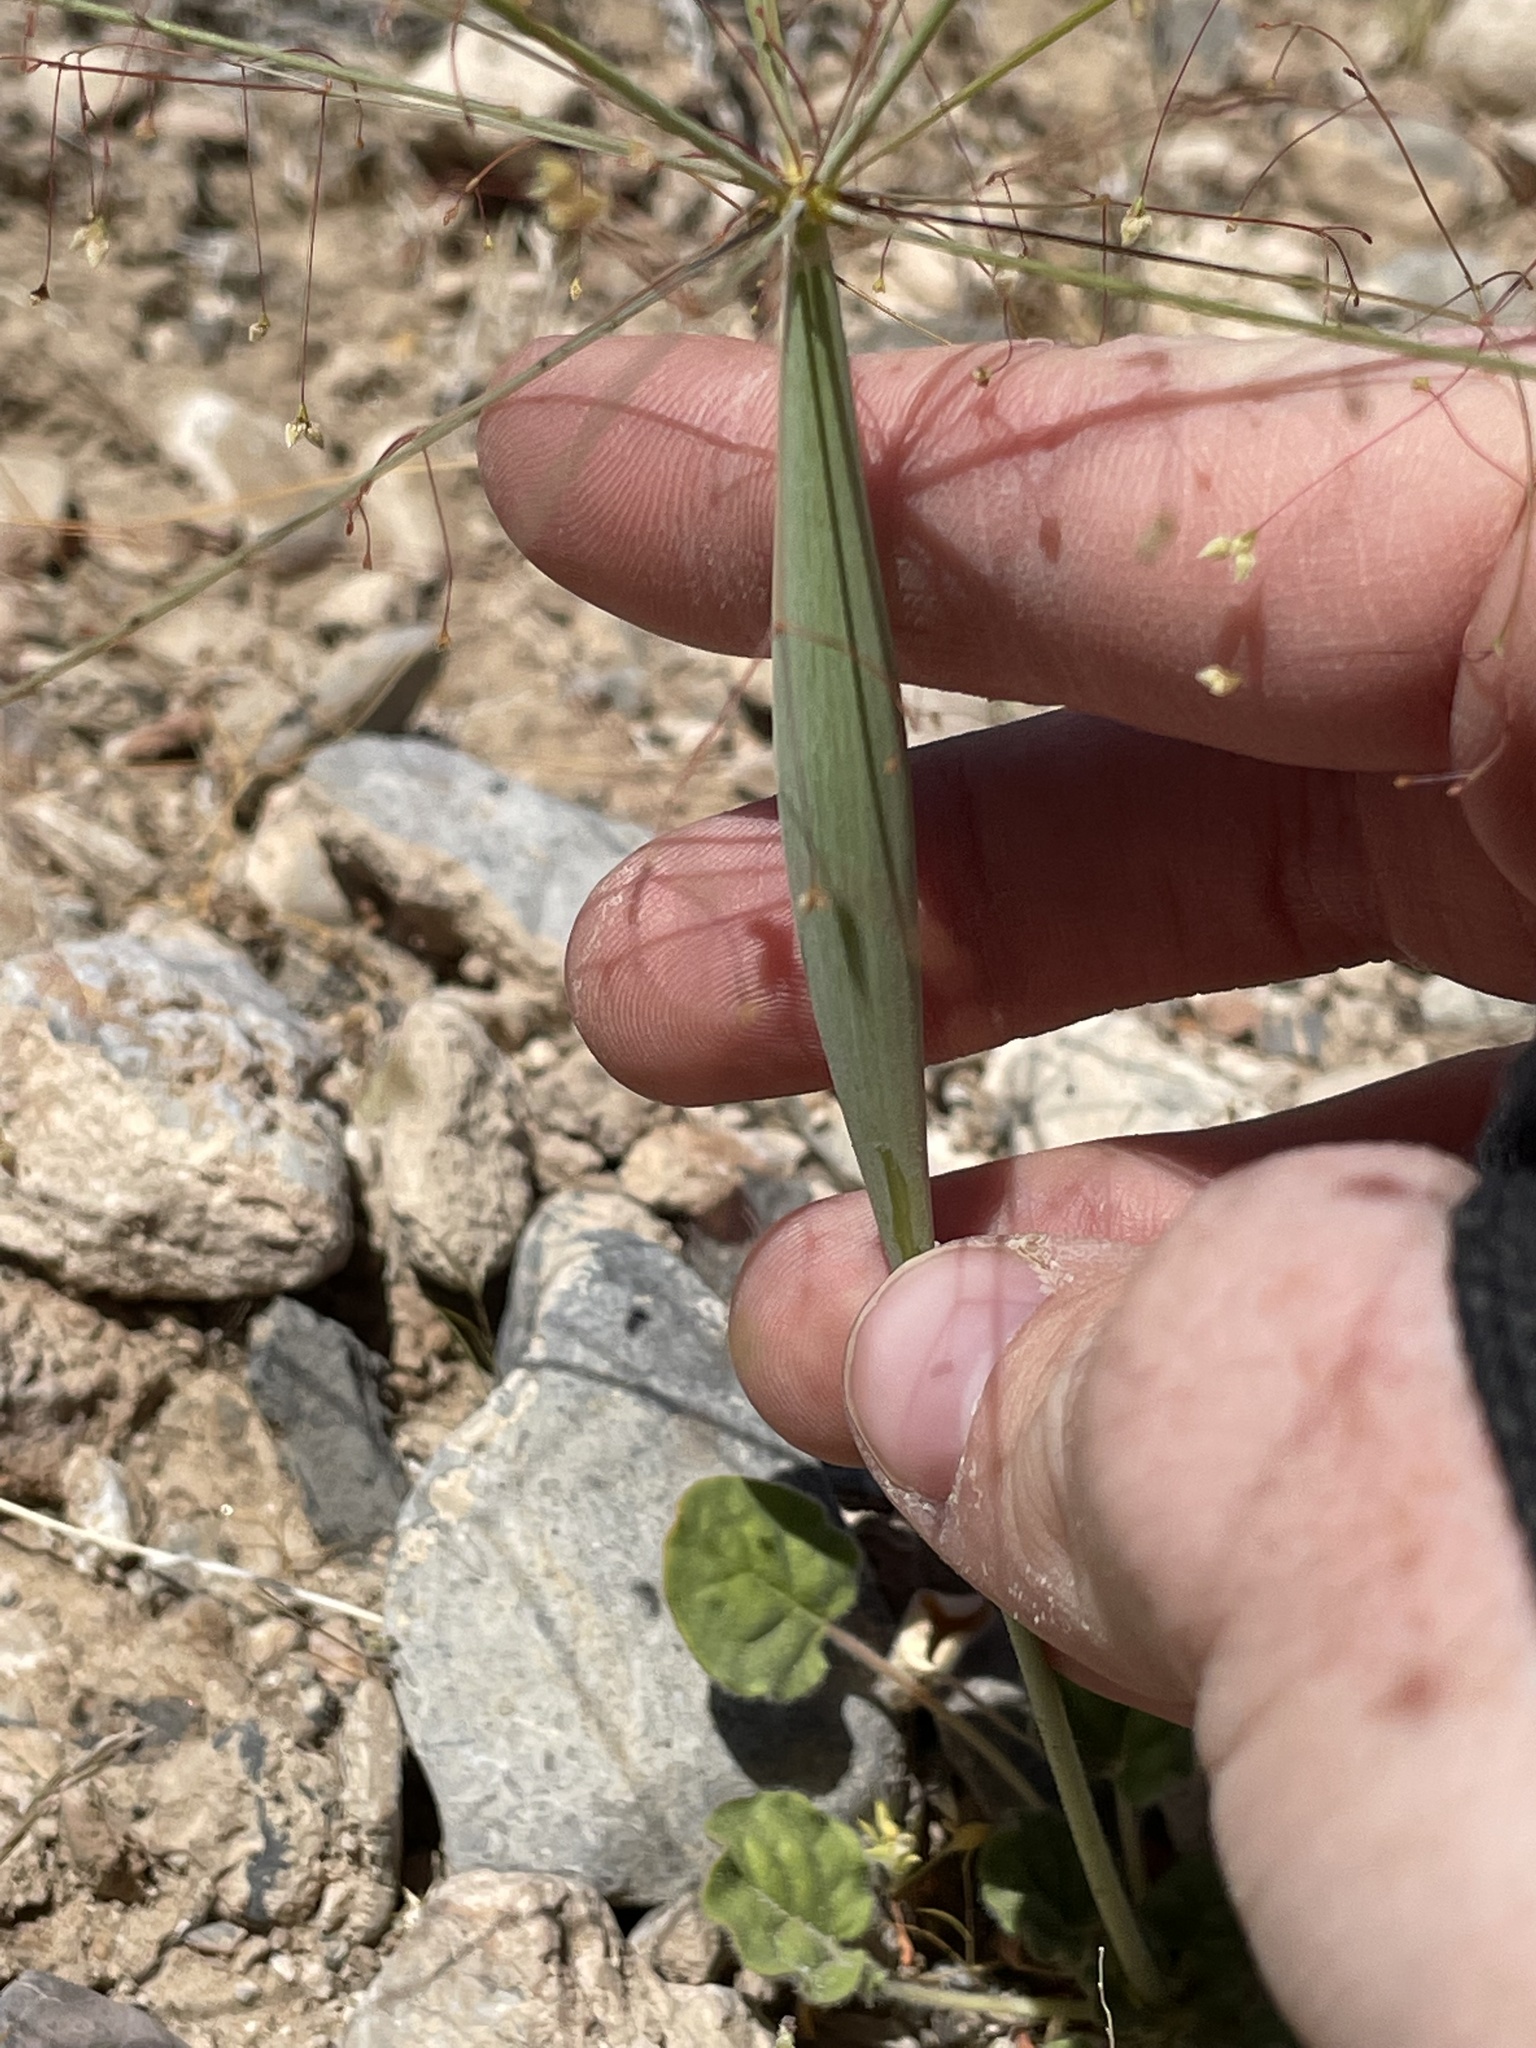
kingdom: Plantae
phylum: Tracheophyta
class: Magnoliopsida
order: Caryophyllales
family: Polygonaceae
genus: Eriogonum
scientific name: Eriogonum inflatum
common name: Desert trumpet
